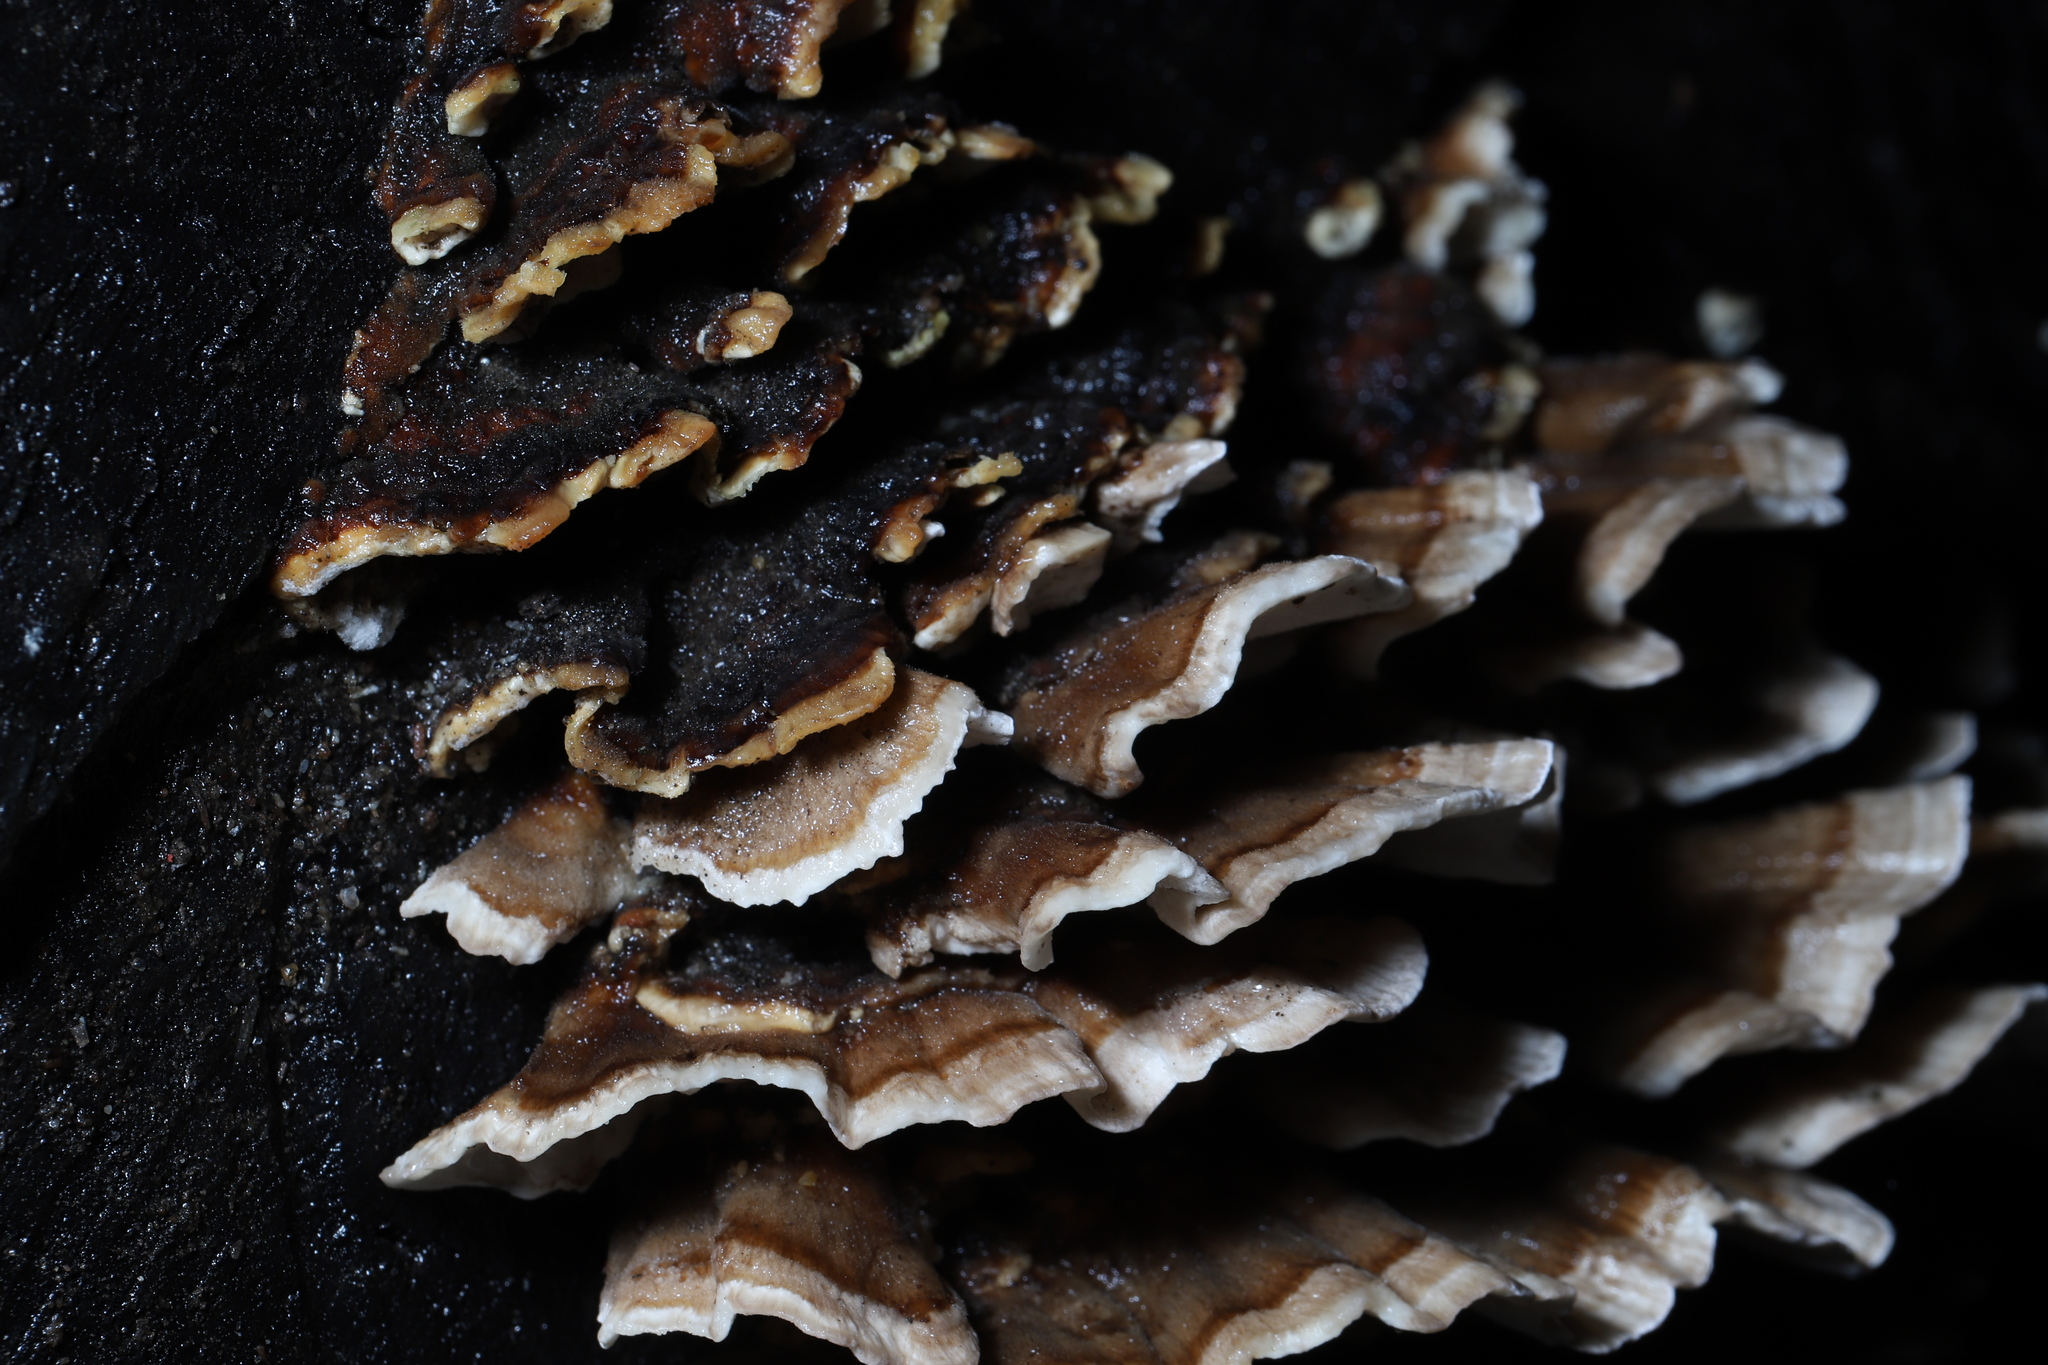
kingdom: Fungi
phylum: Basidiomycota
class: Agaricomycetes
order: Polyporales
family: Polyporaceae
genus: Trametes
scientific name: Trametes versicolor
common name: Turkeytail
